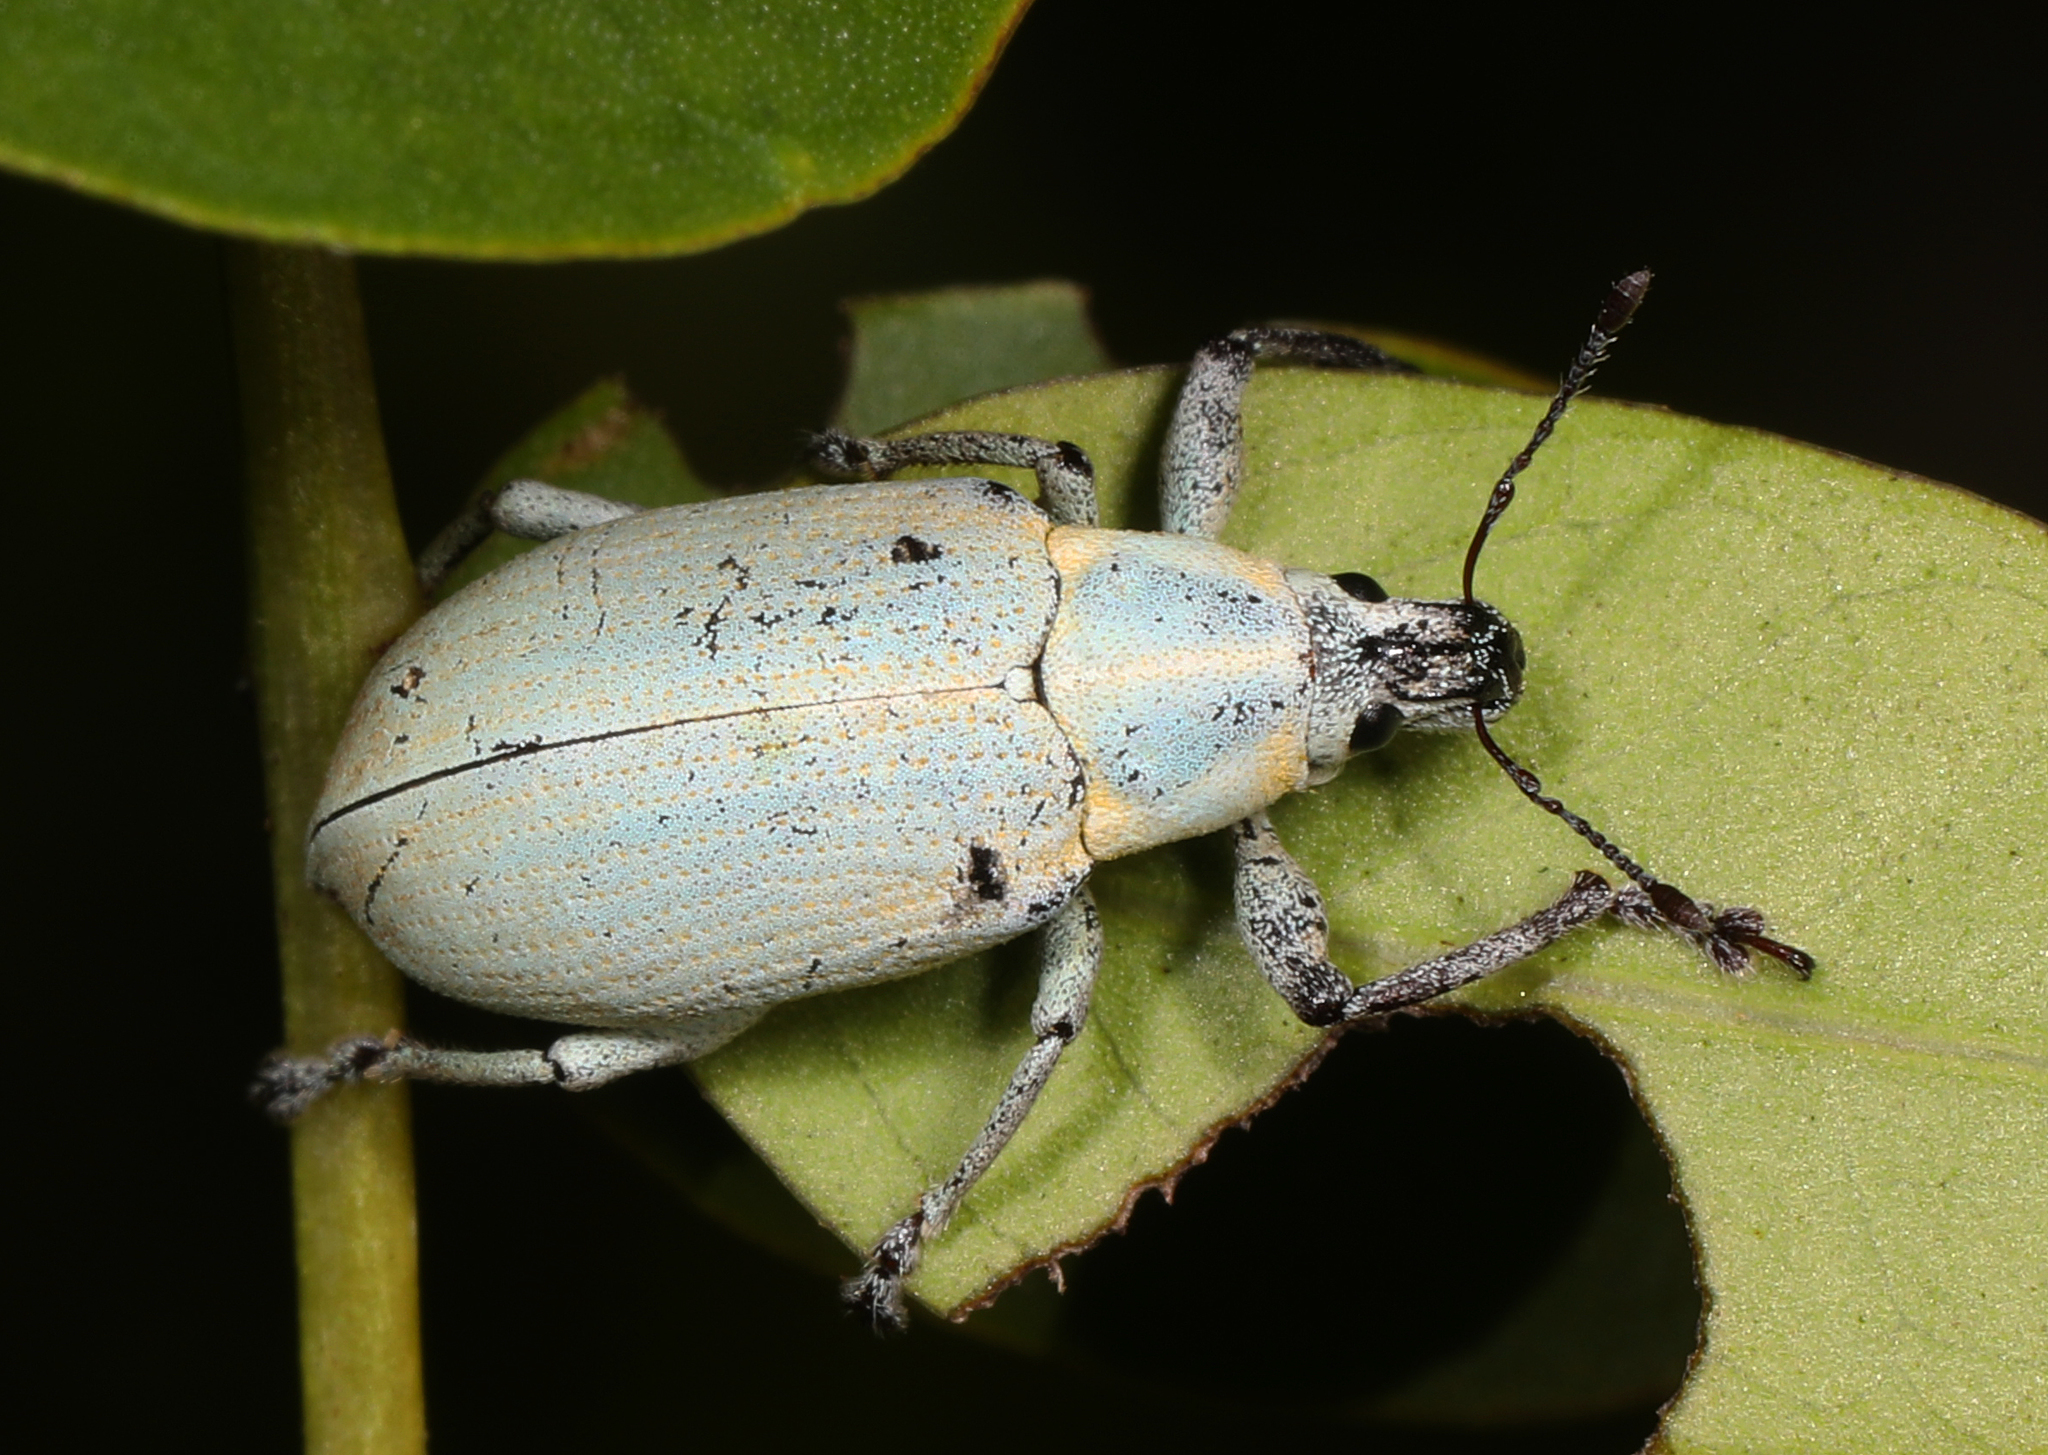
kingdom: Animalia
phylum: Arthropoda
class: Insecta
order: Coleoptera
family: Curculionidae
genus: Pachnaeus
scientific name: Pachnaeus litus
